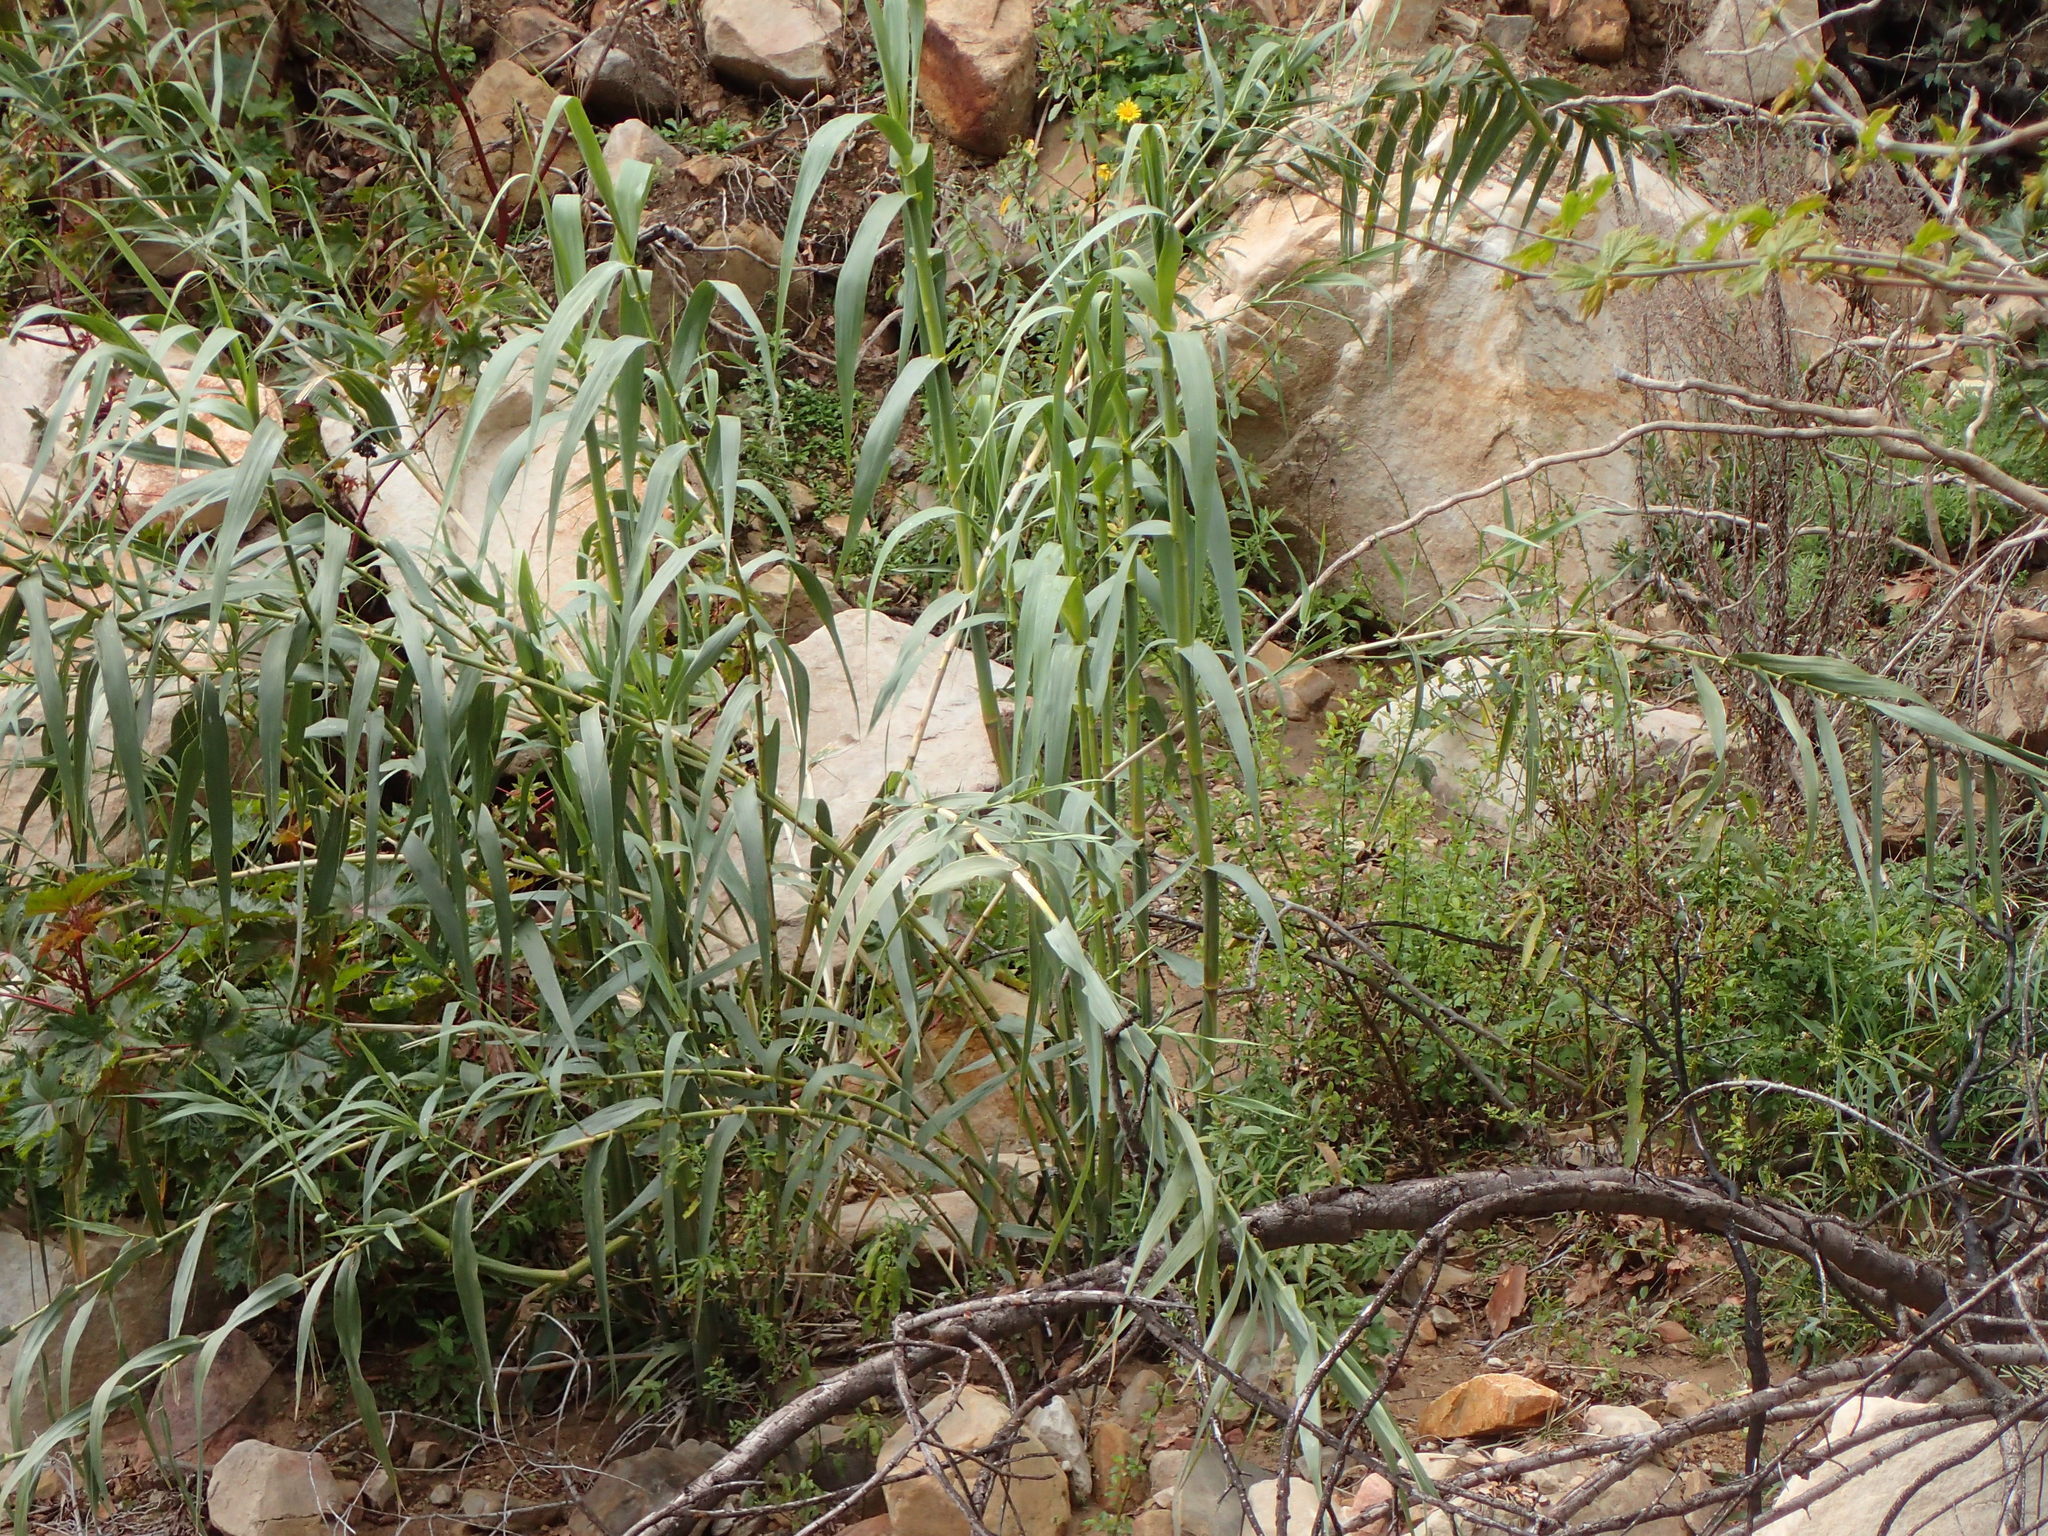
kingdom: Plantae
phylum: Tracheophyta
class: Liliopsida
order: Poales
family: Poaceae
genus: Arundo
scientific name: Arundo donax
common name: Giant reed
